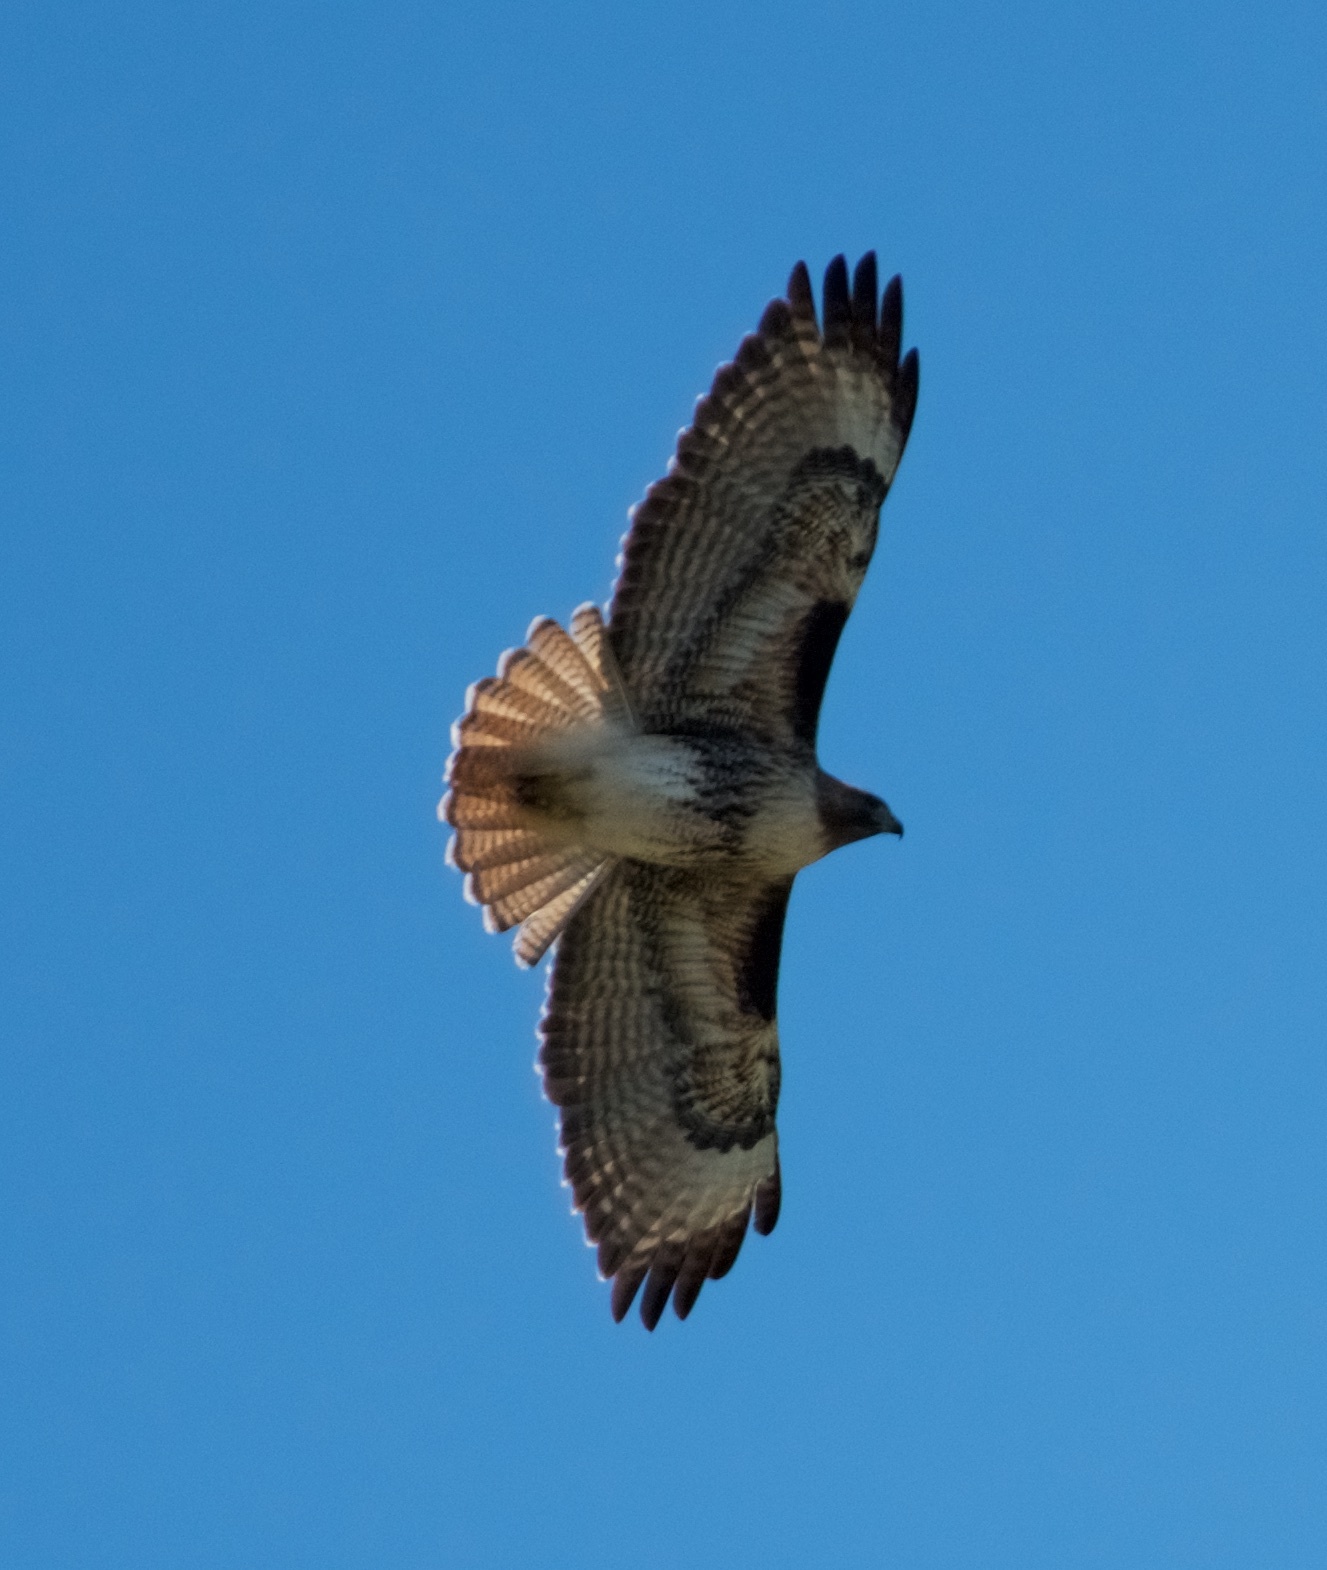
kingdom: Animalia
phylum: Chordata
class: Aves
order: Accipitriformes
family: Accipitridae
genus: Buteo
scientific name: Buteo jamaicensis
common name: Red-tailed hawk
